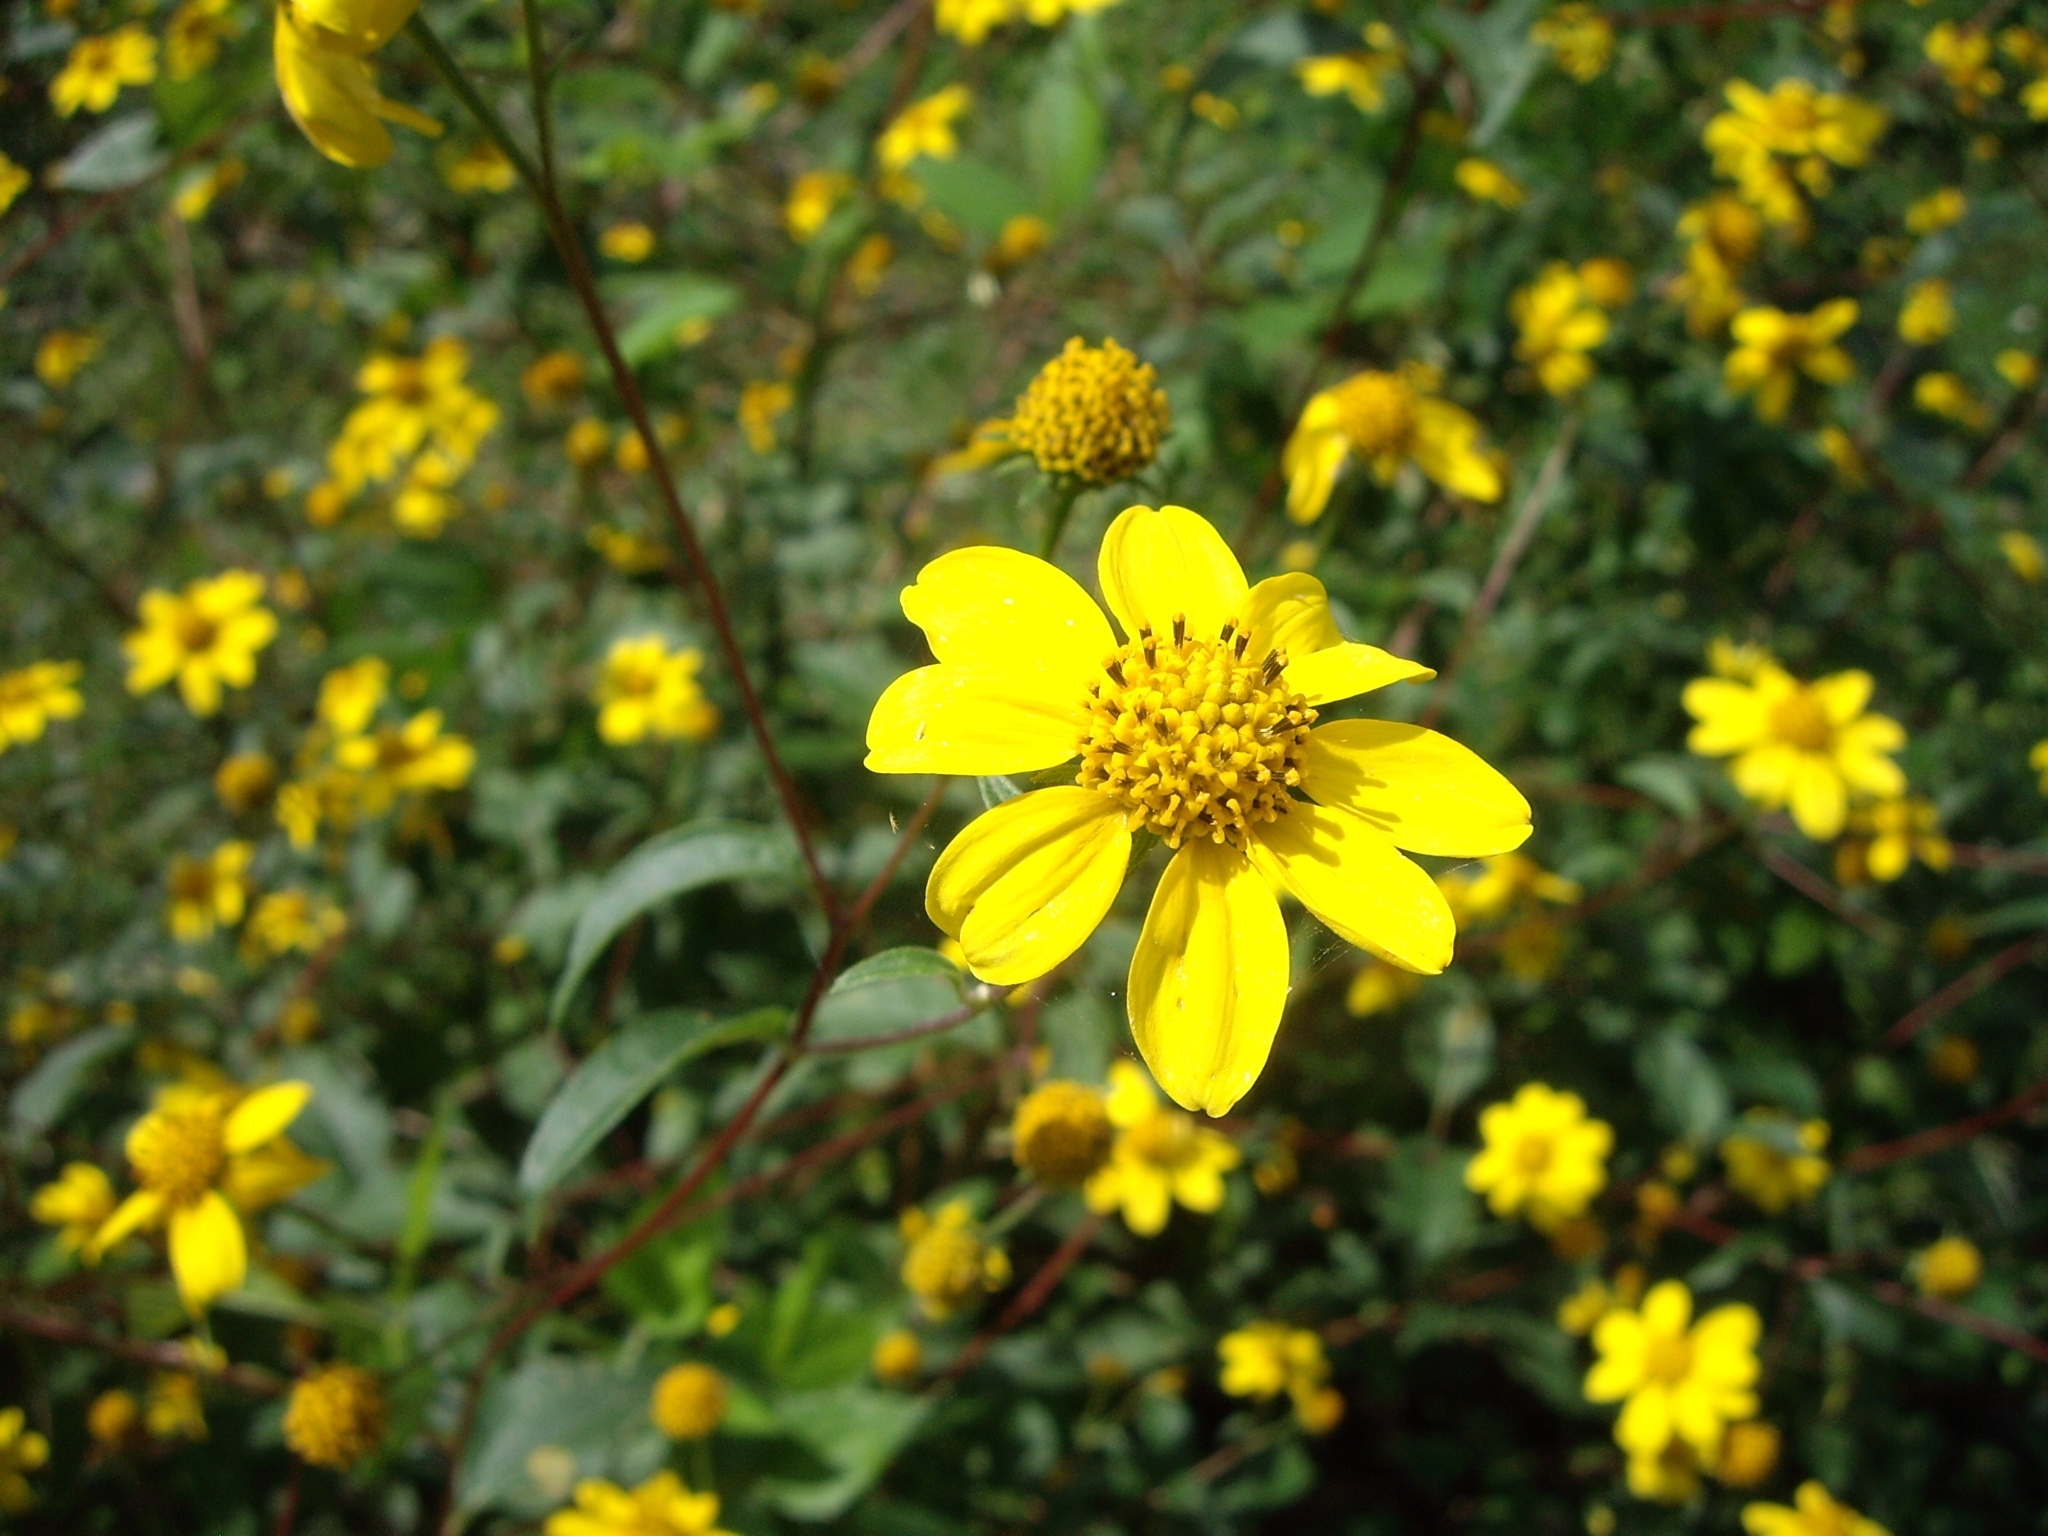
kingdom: Plantae
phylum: Tracheophyta
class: Magnoliopsida
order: Asterales
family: Asteraceae
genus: Viguiera
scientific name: Viguiera dentata
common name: Toothleaf
